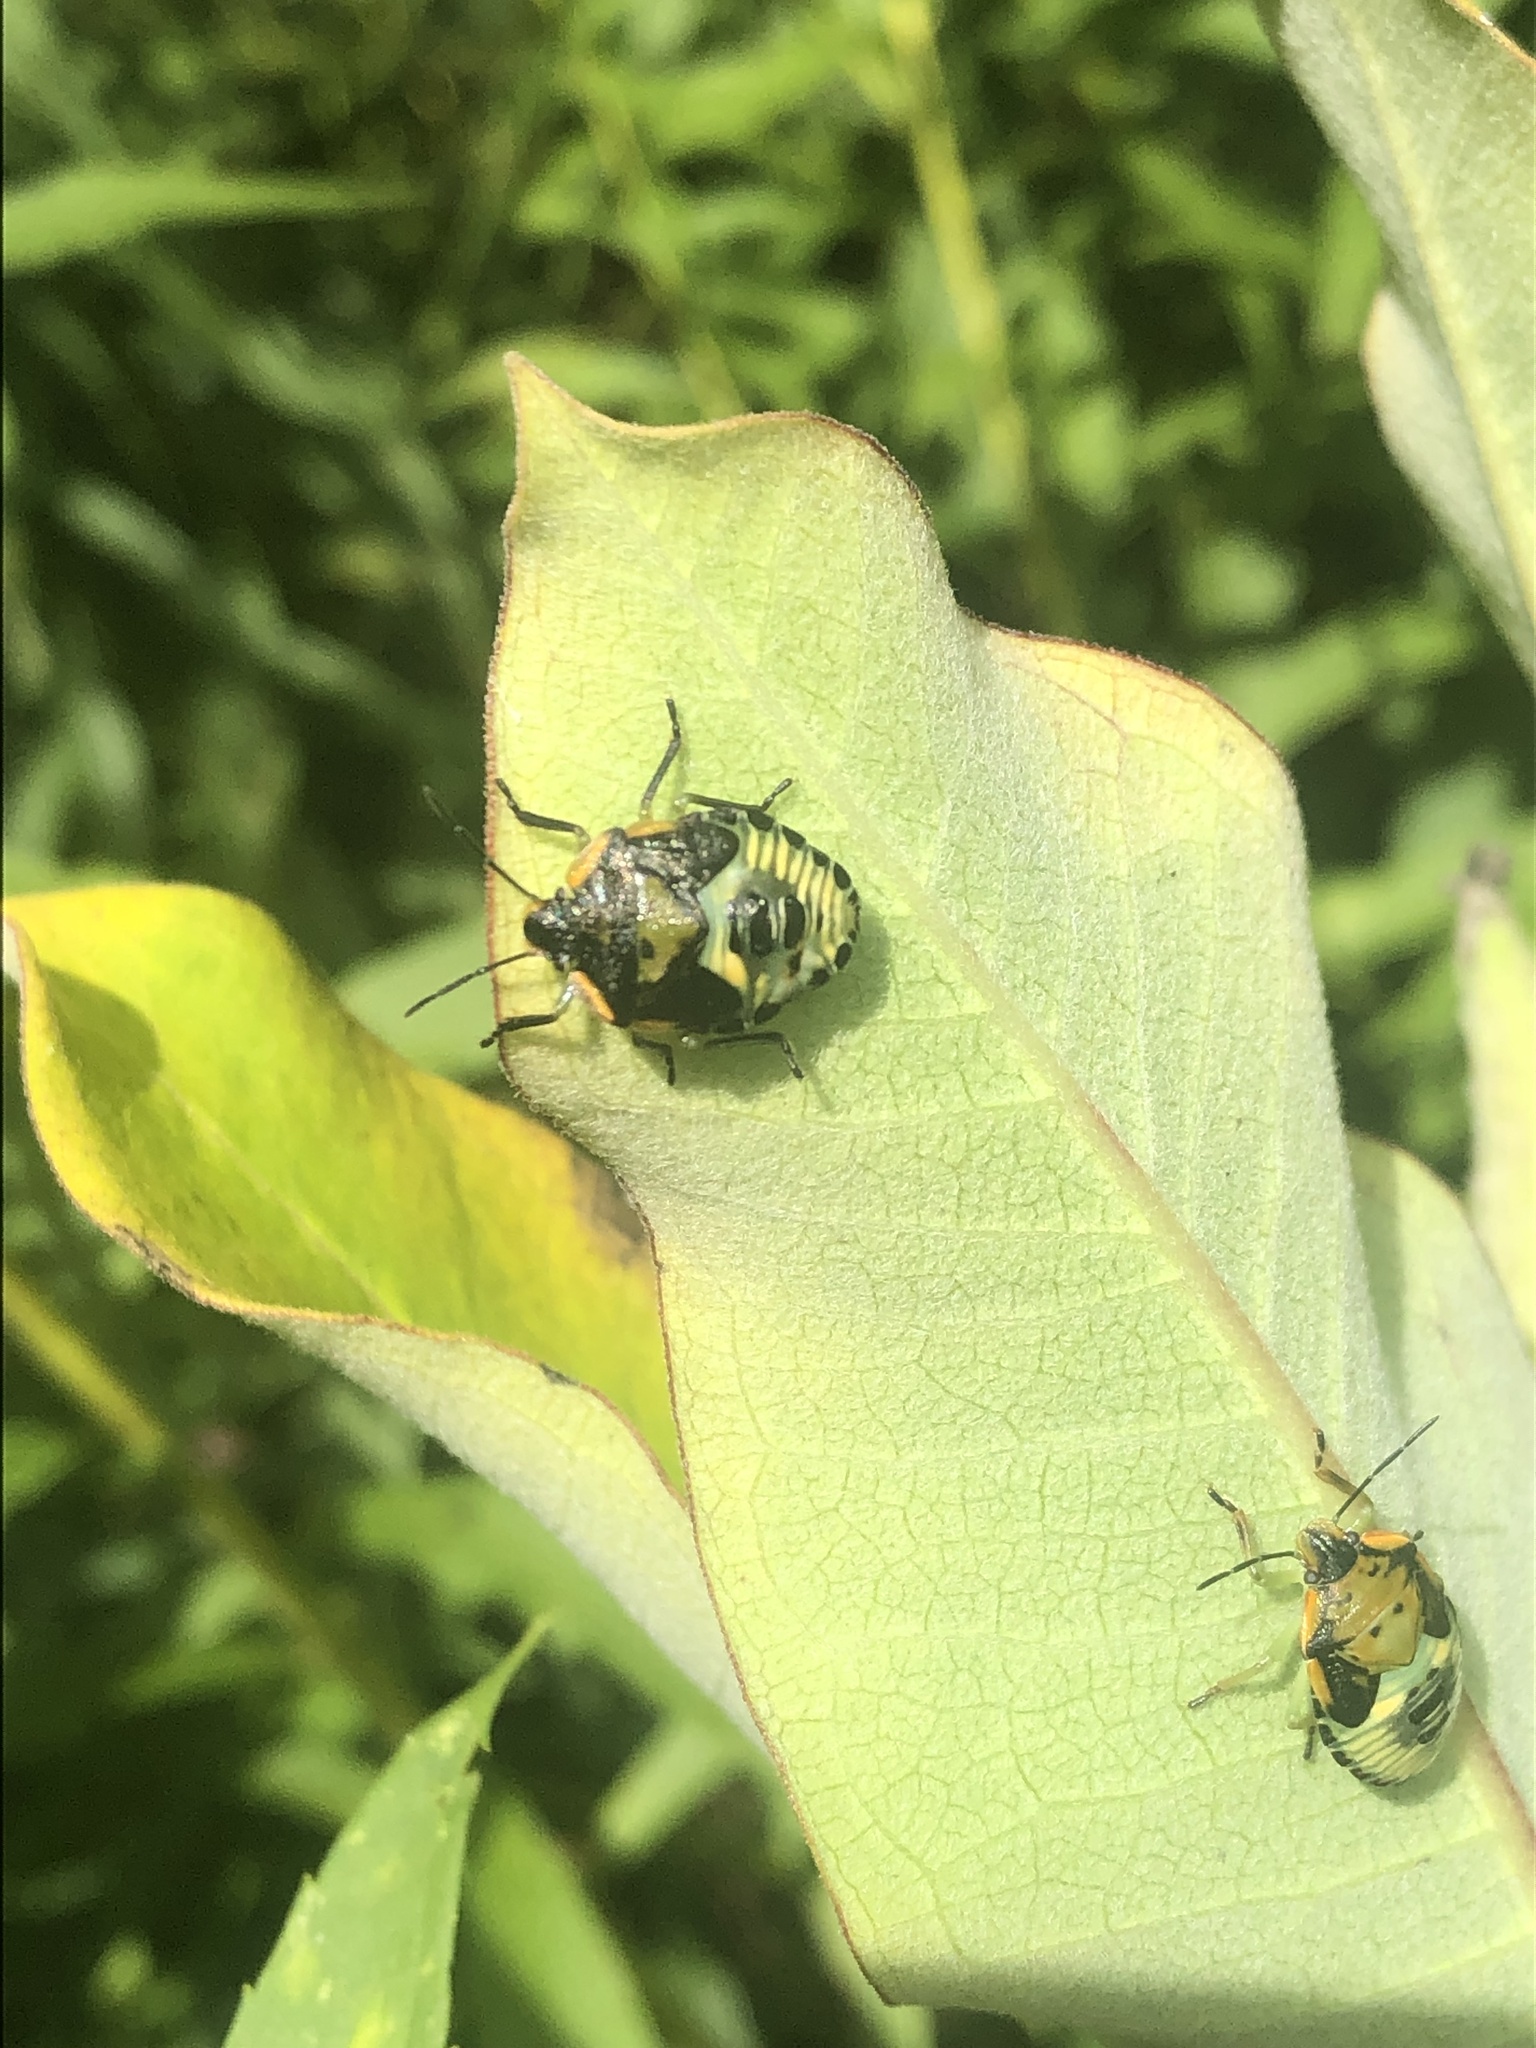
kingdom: Animalia
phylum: Arthropoda
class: Insecta
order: Hemiptera
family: Pentatomidae
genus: Chinavia
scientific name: Chinavia hilaris
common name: Green stink bug
